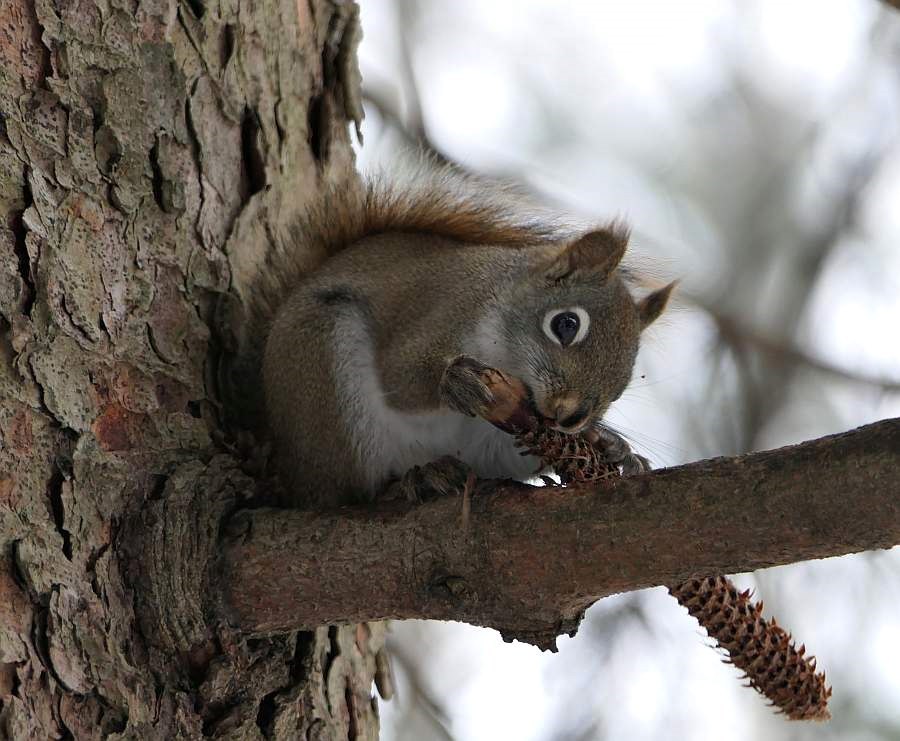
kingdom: Animalia
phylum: Chordata
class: Mammalia
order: Rodentia
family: Sciuridae
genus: Tamiasciurus
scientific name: Tamiasciurus hudsonicus
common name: Red squirrel
